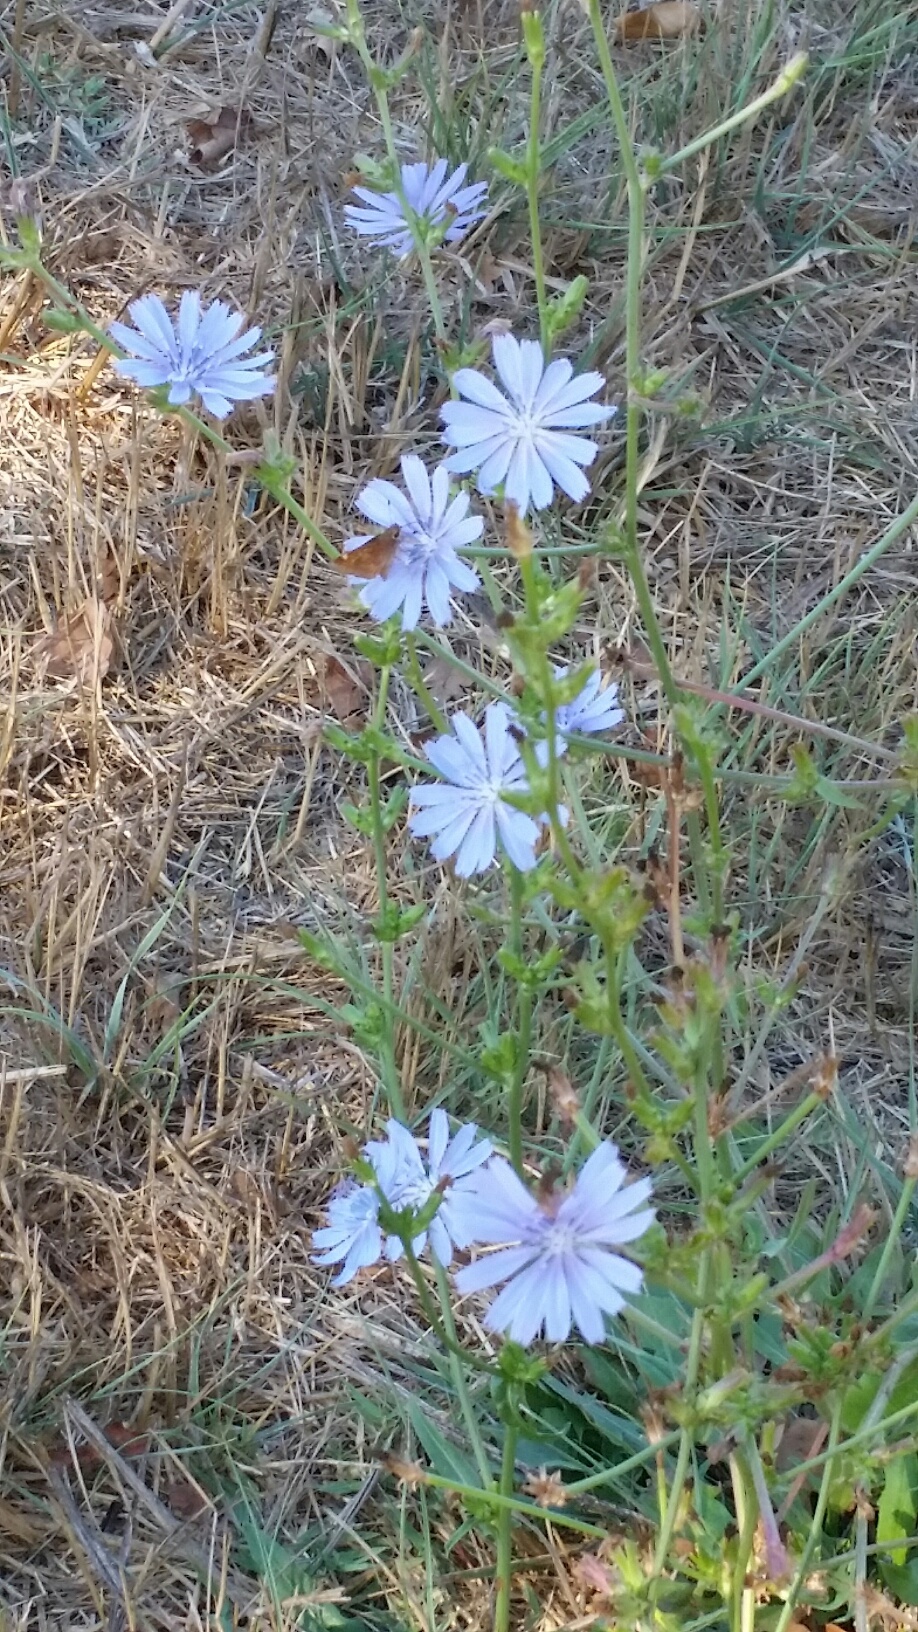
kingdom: Plantae
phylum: Tracheophyta
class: Magnoliopsida
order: Asterales
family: Asteraceae
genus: Cichorium
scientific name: Cichorium intybus
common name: Chicory
